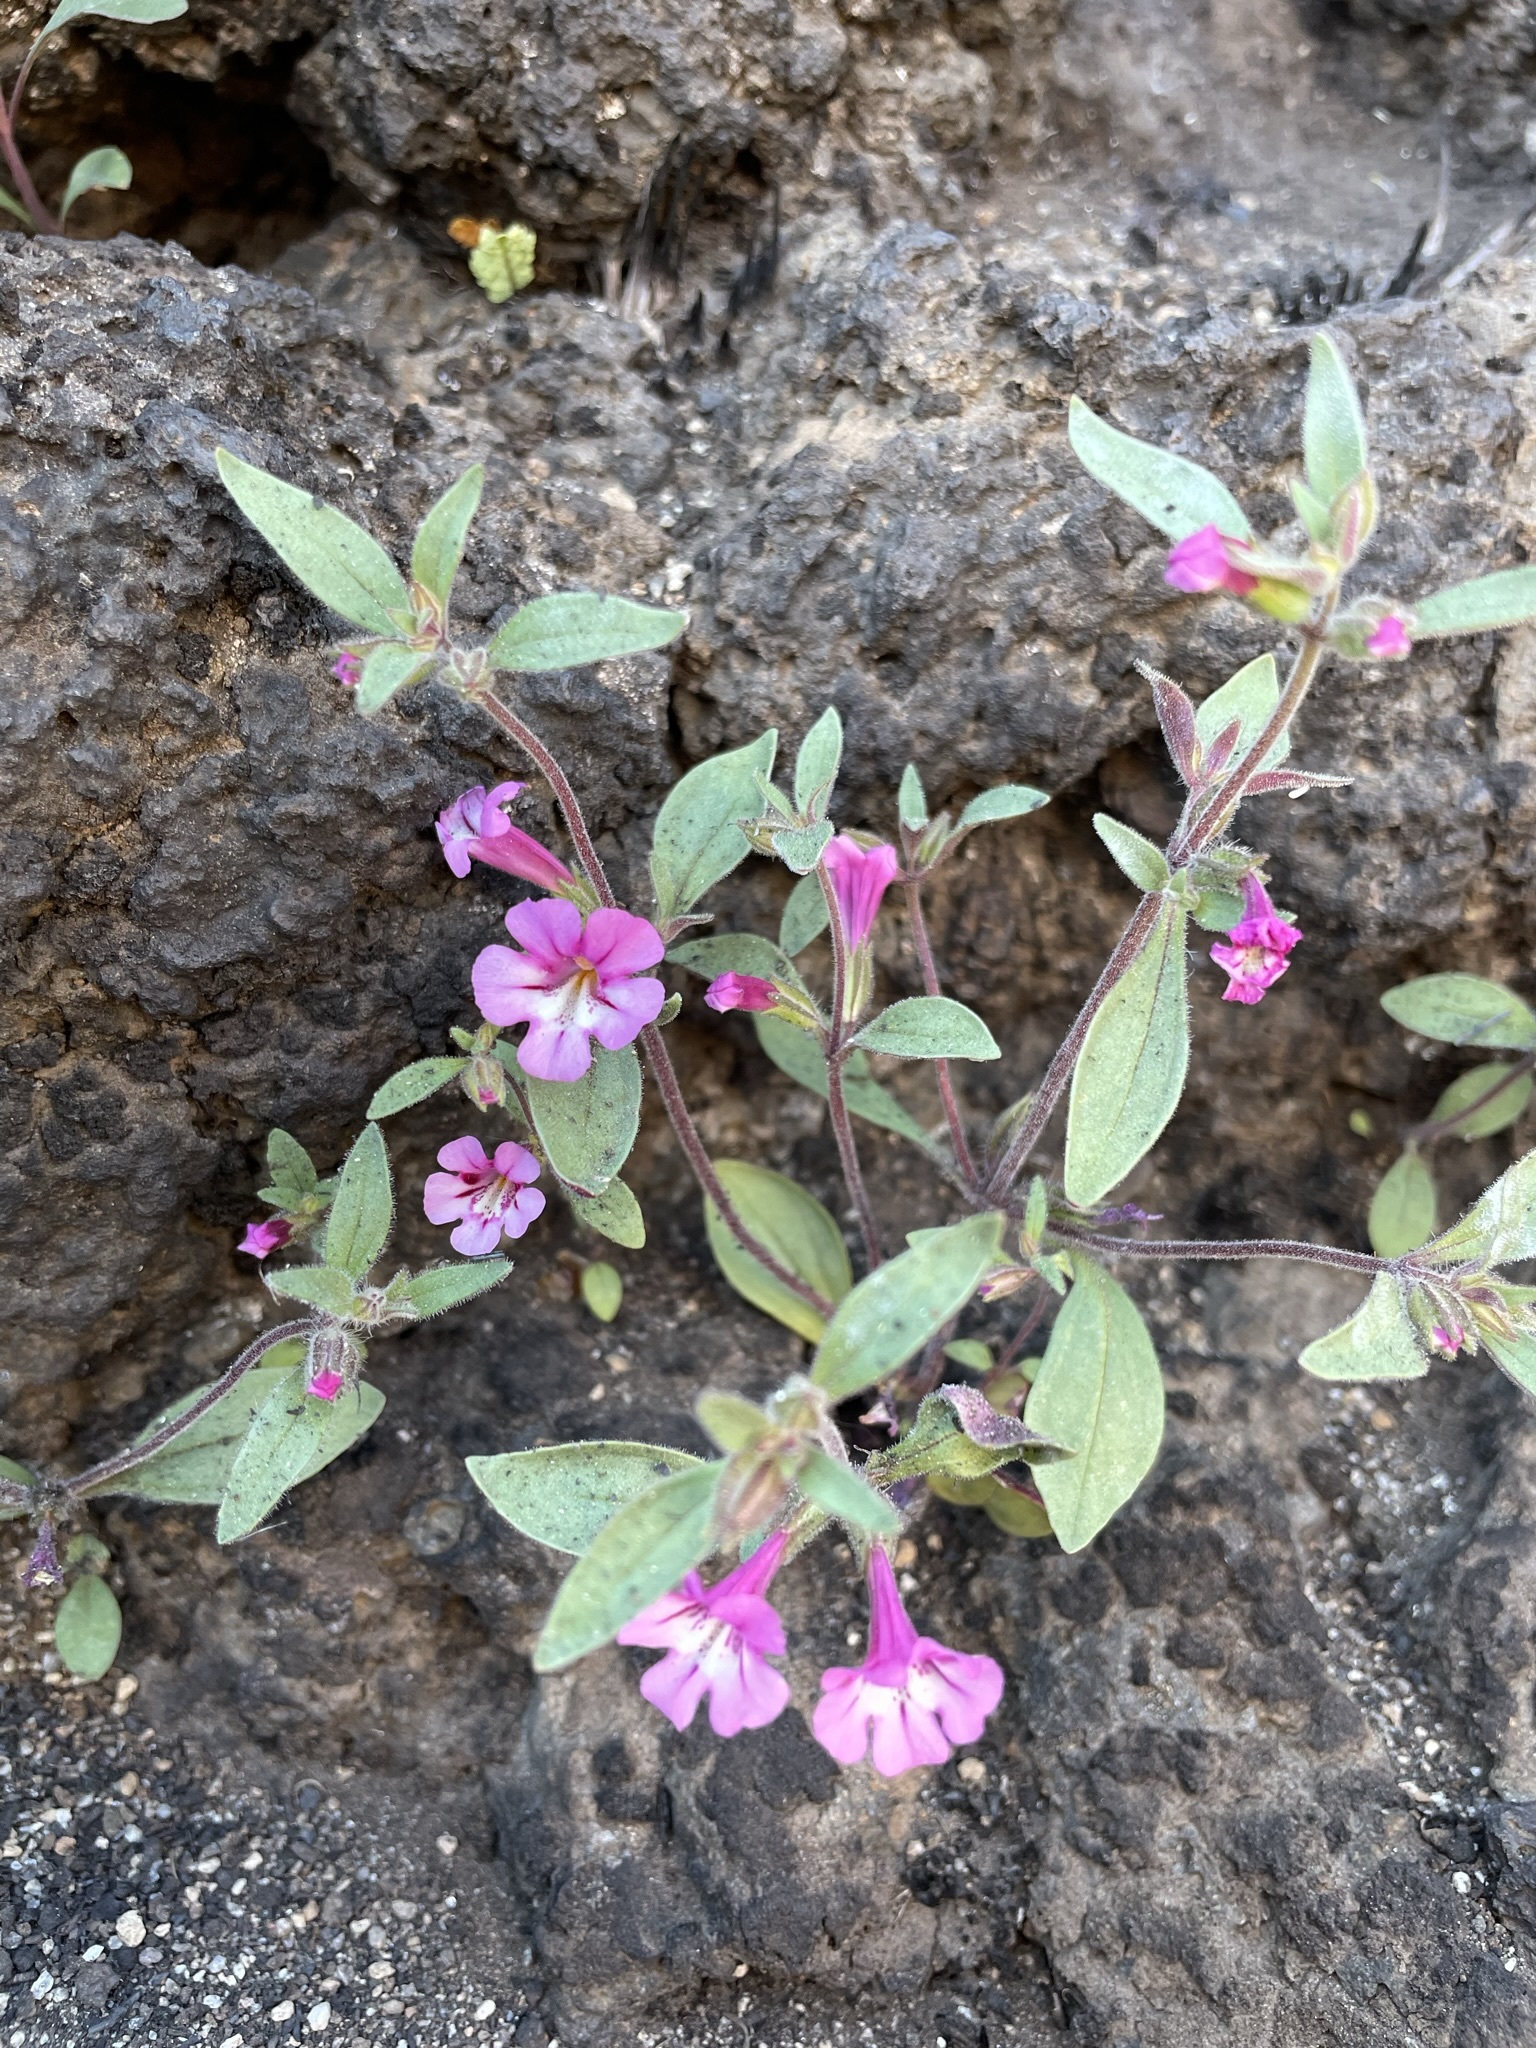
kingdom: Plantae
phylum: Tracheophyta
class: Magnoliopsida
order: Lamiales
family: Phrymaceae
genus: Diplacus
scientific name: Diplacus layneae
